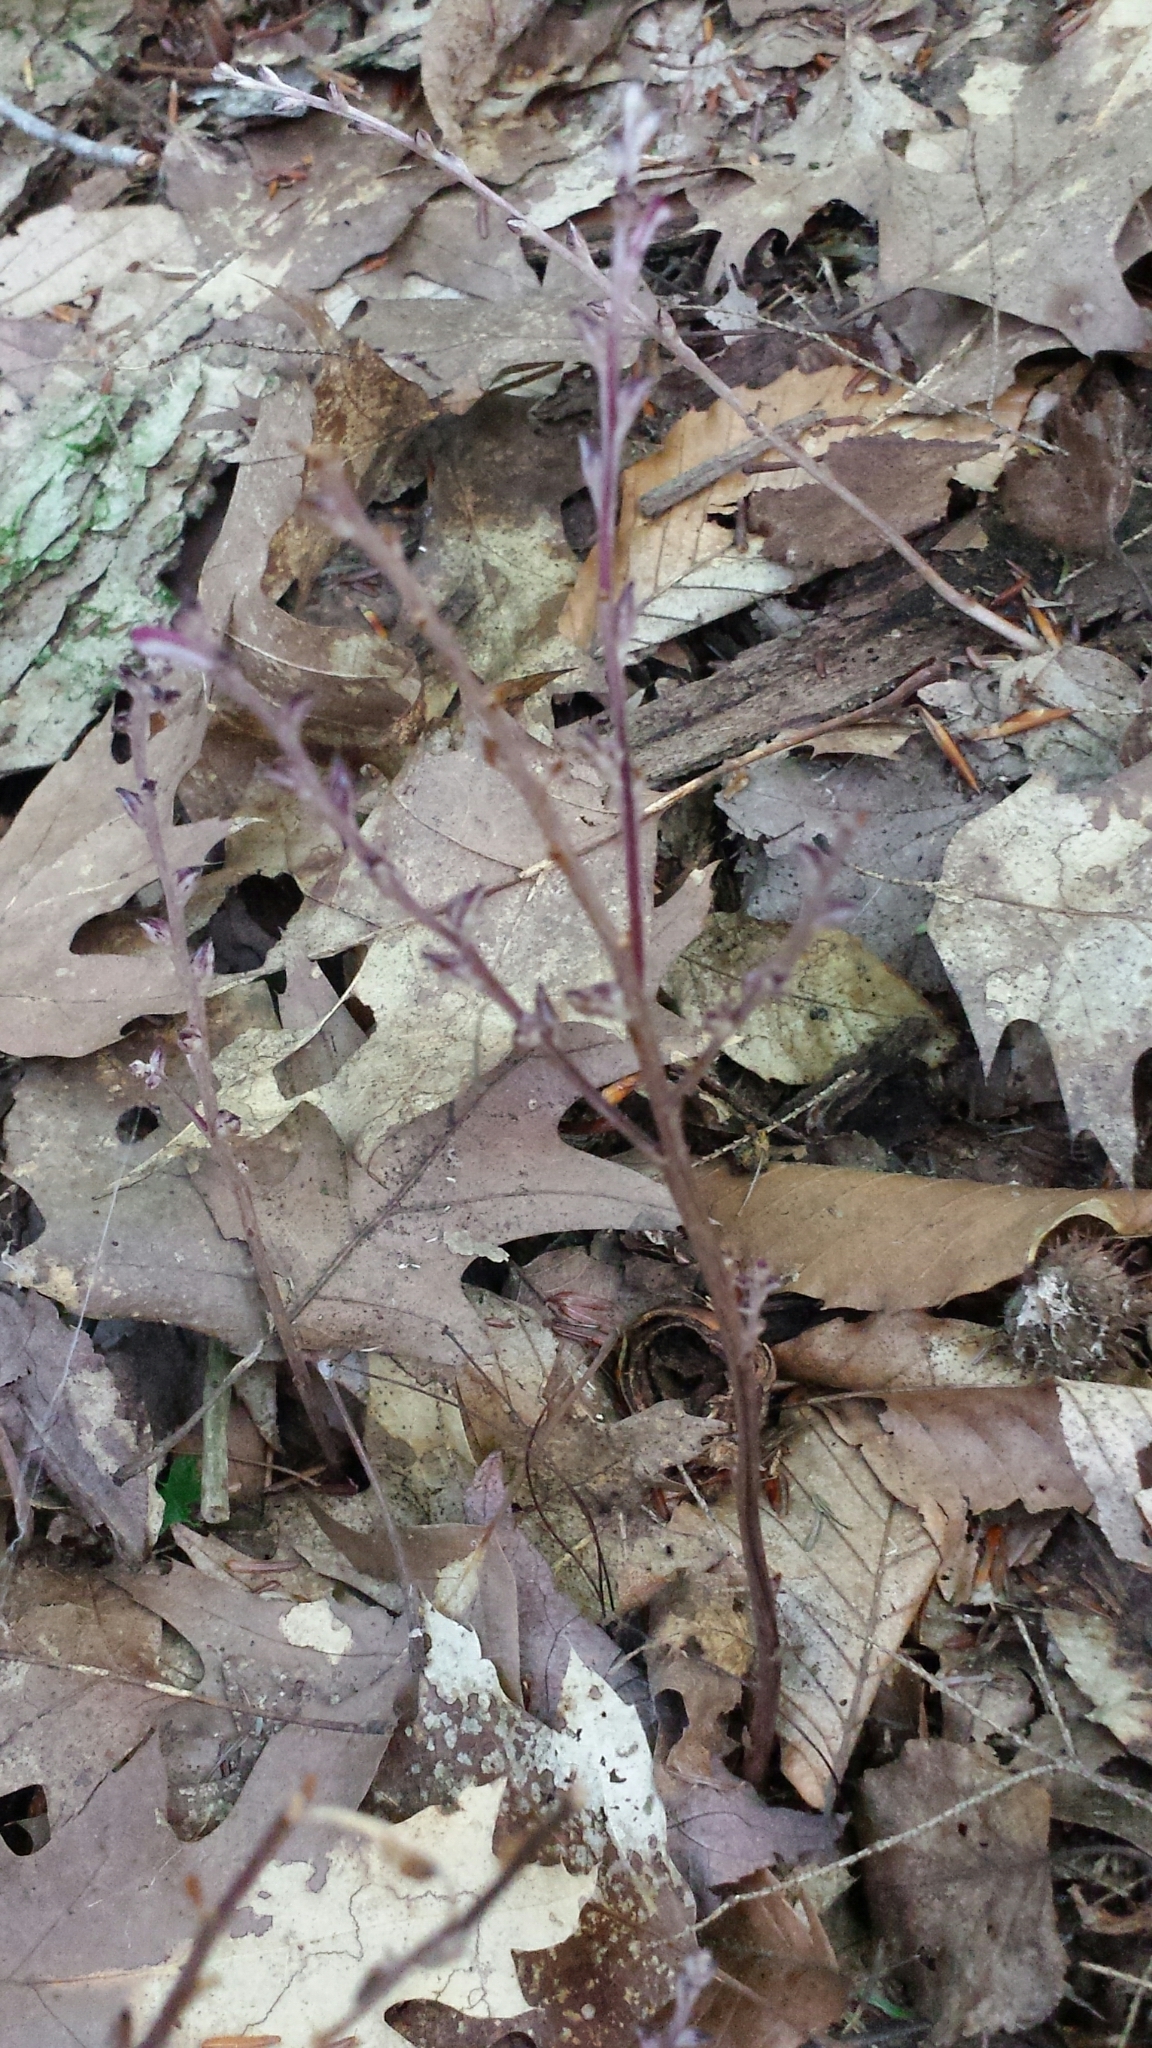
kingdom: Plantae
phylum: Tracheophyta
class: Magnoliopsida
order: Lamiales
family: Orobanchaceae
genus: Epifagus
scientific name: Epifagus virginiana
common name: Beechdrops
